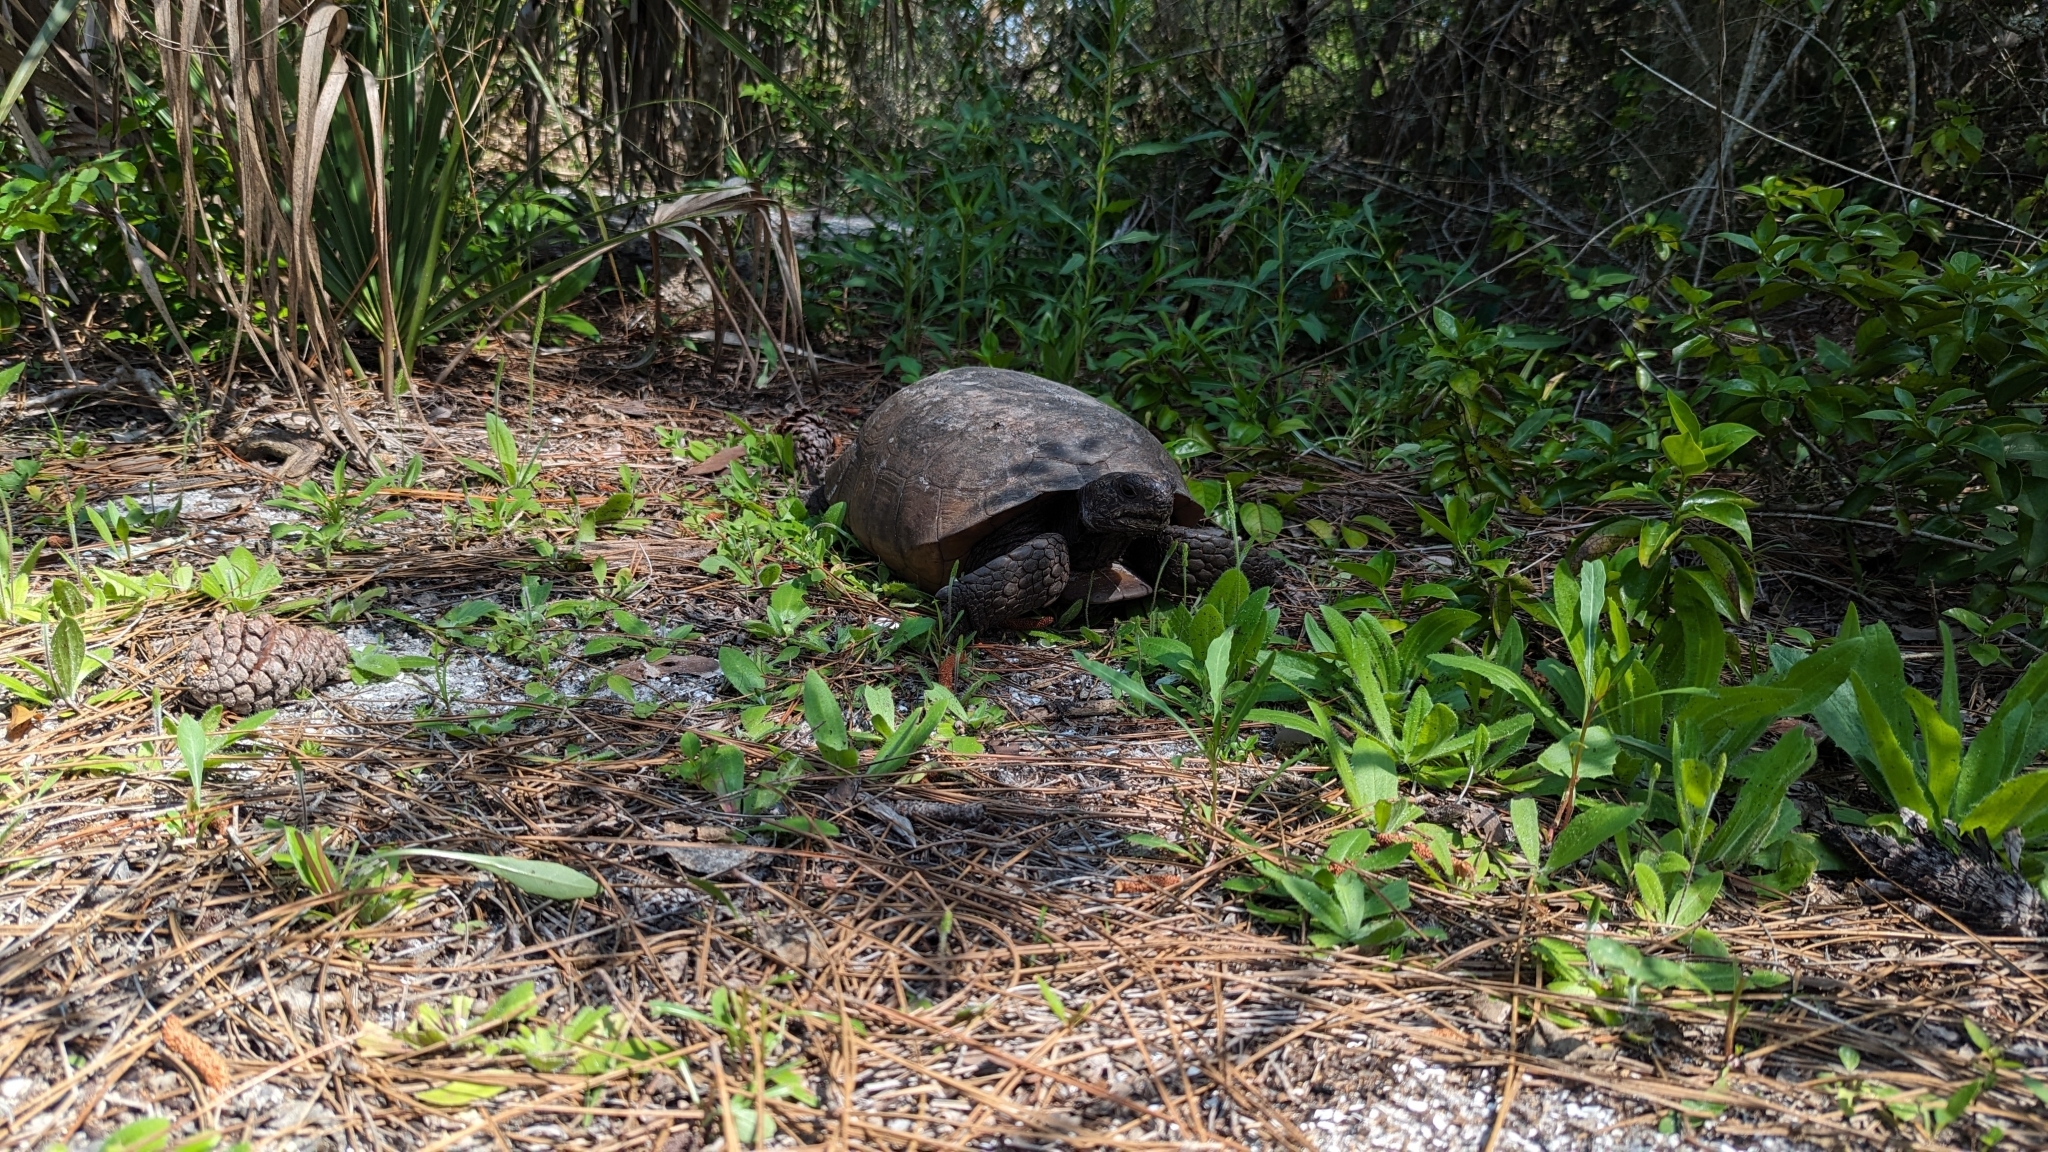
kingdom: Animalia
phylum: Chordata
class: Testudines
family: Testudinidae
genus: Gopherus
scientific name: Gopherus polyphemus
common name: Florida gopher tortoise
